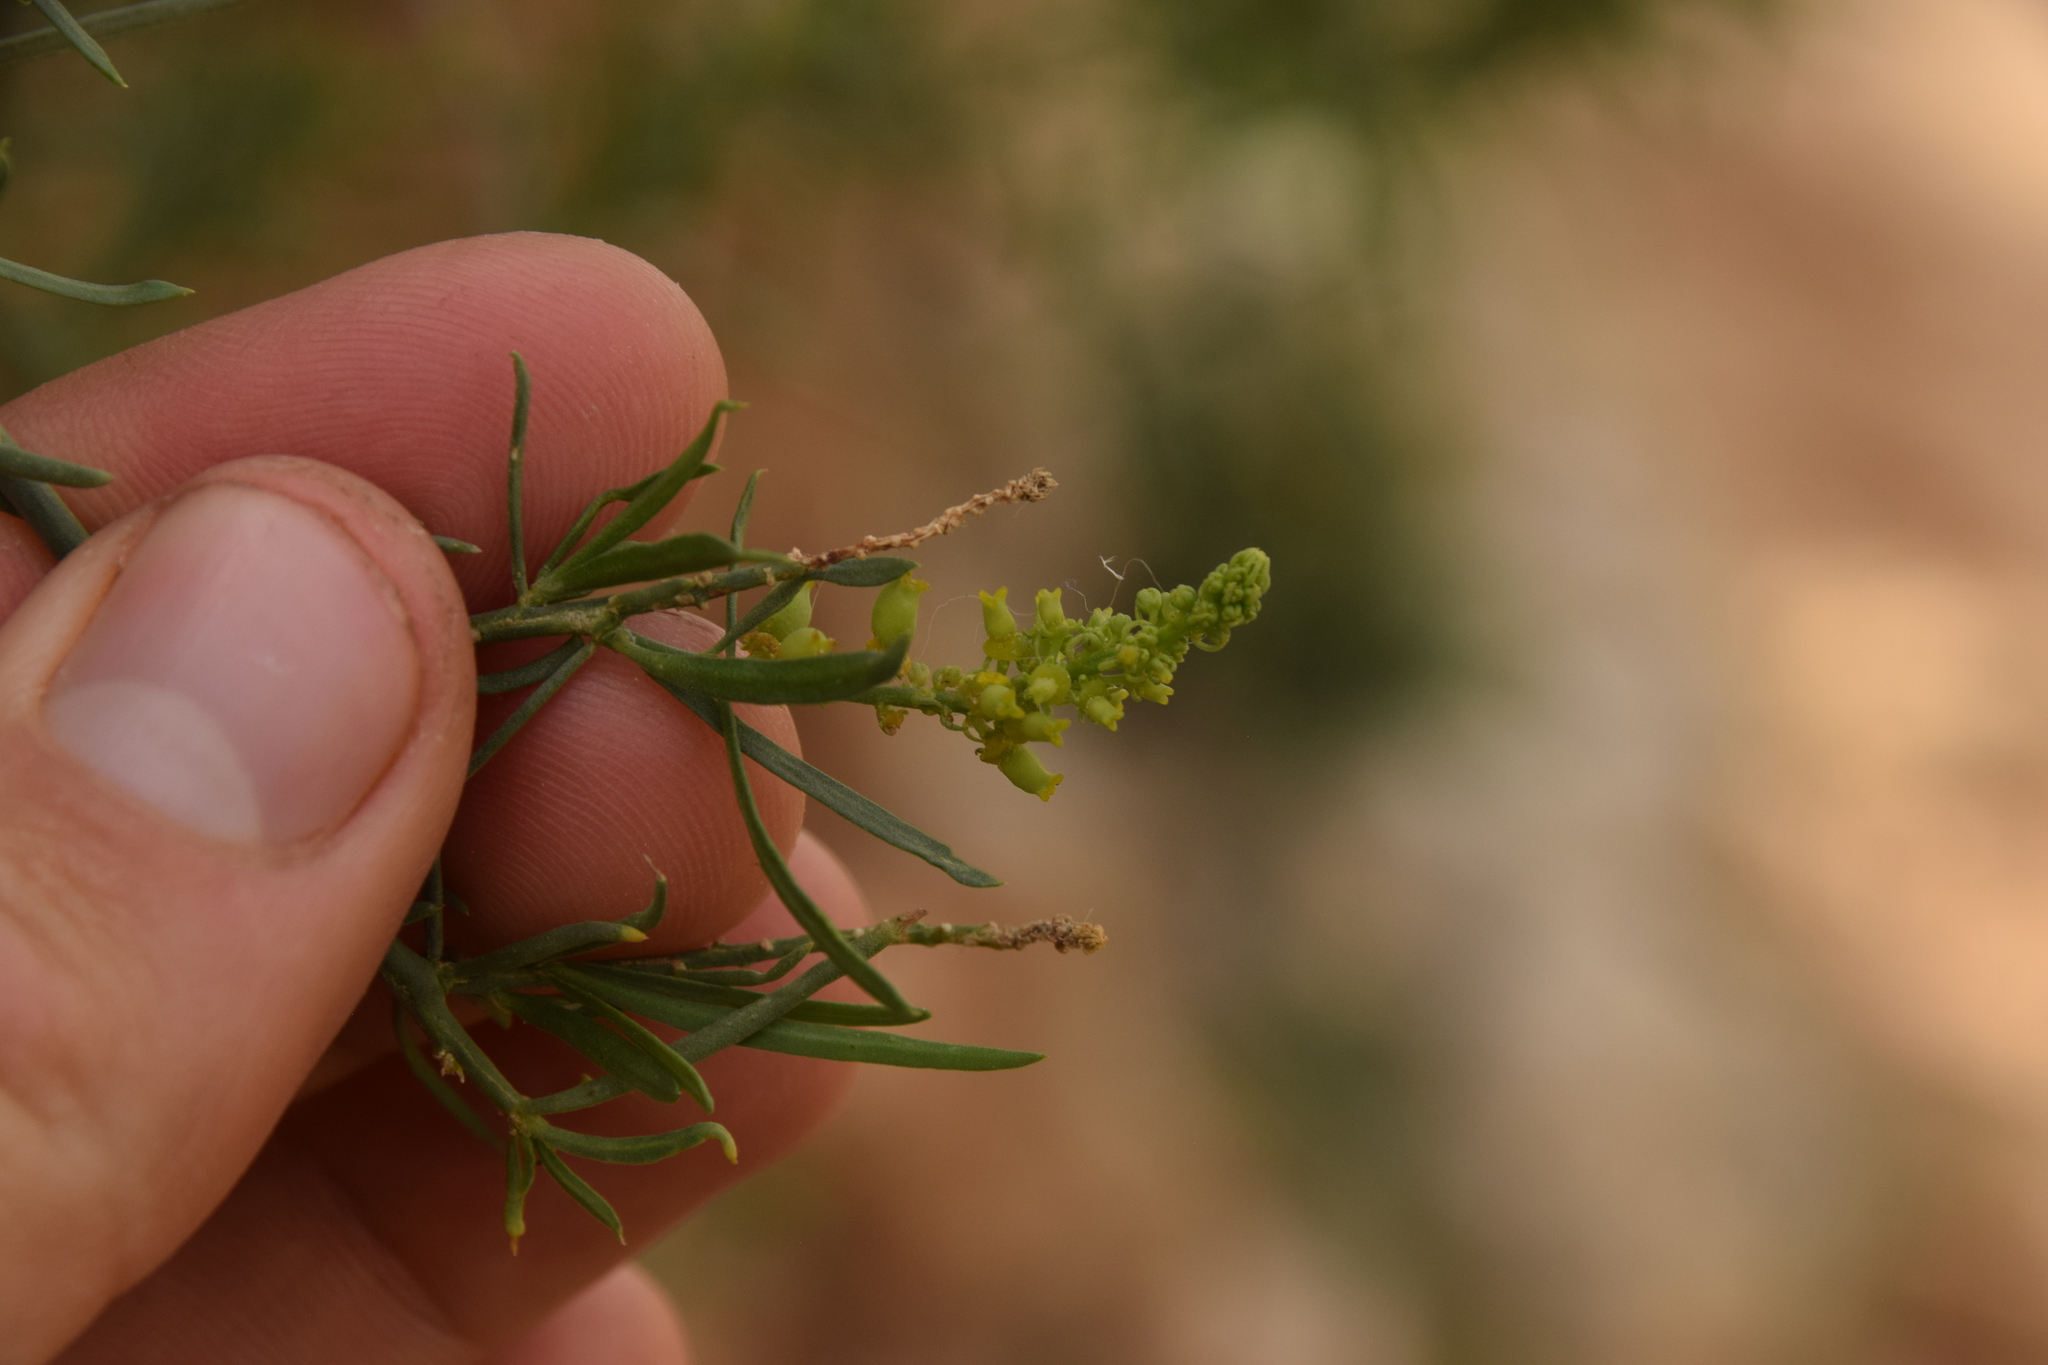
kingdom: Plantae
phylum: Tracheophyta
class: Magnoliopsida
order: Brassicales
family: Resedaceae
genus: Ochradenus
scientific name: Ochradenus baccatus
